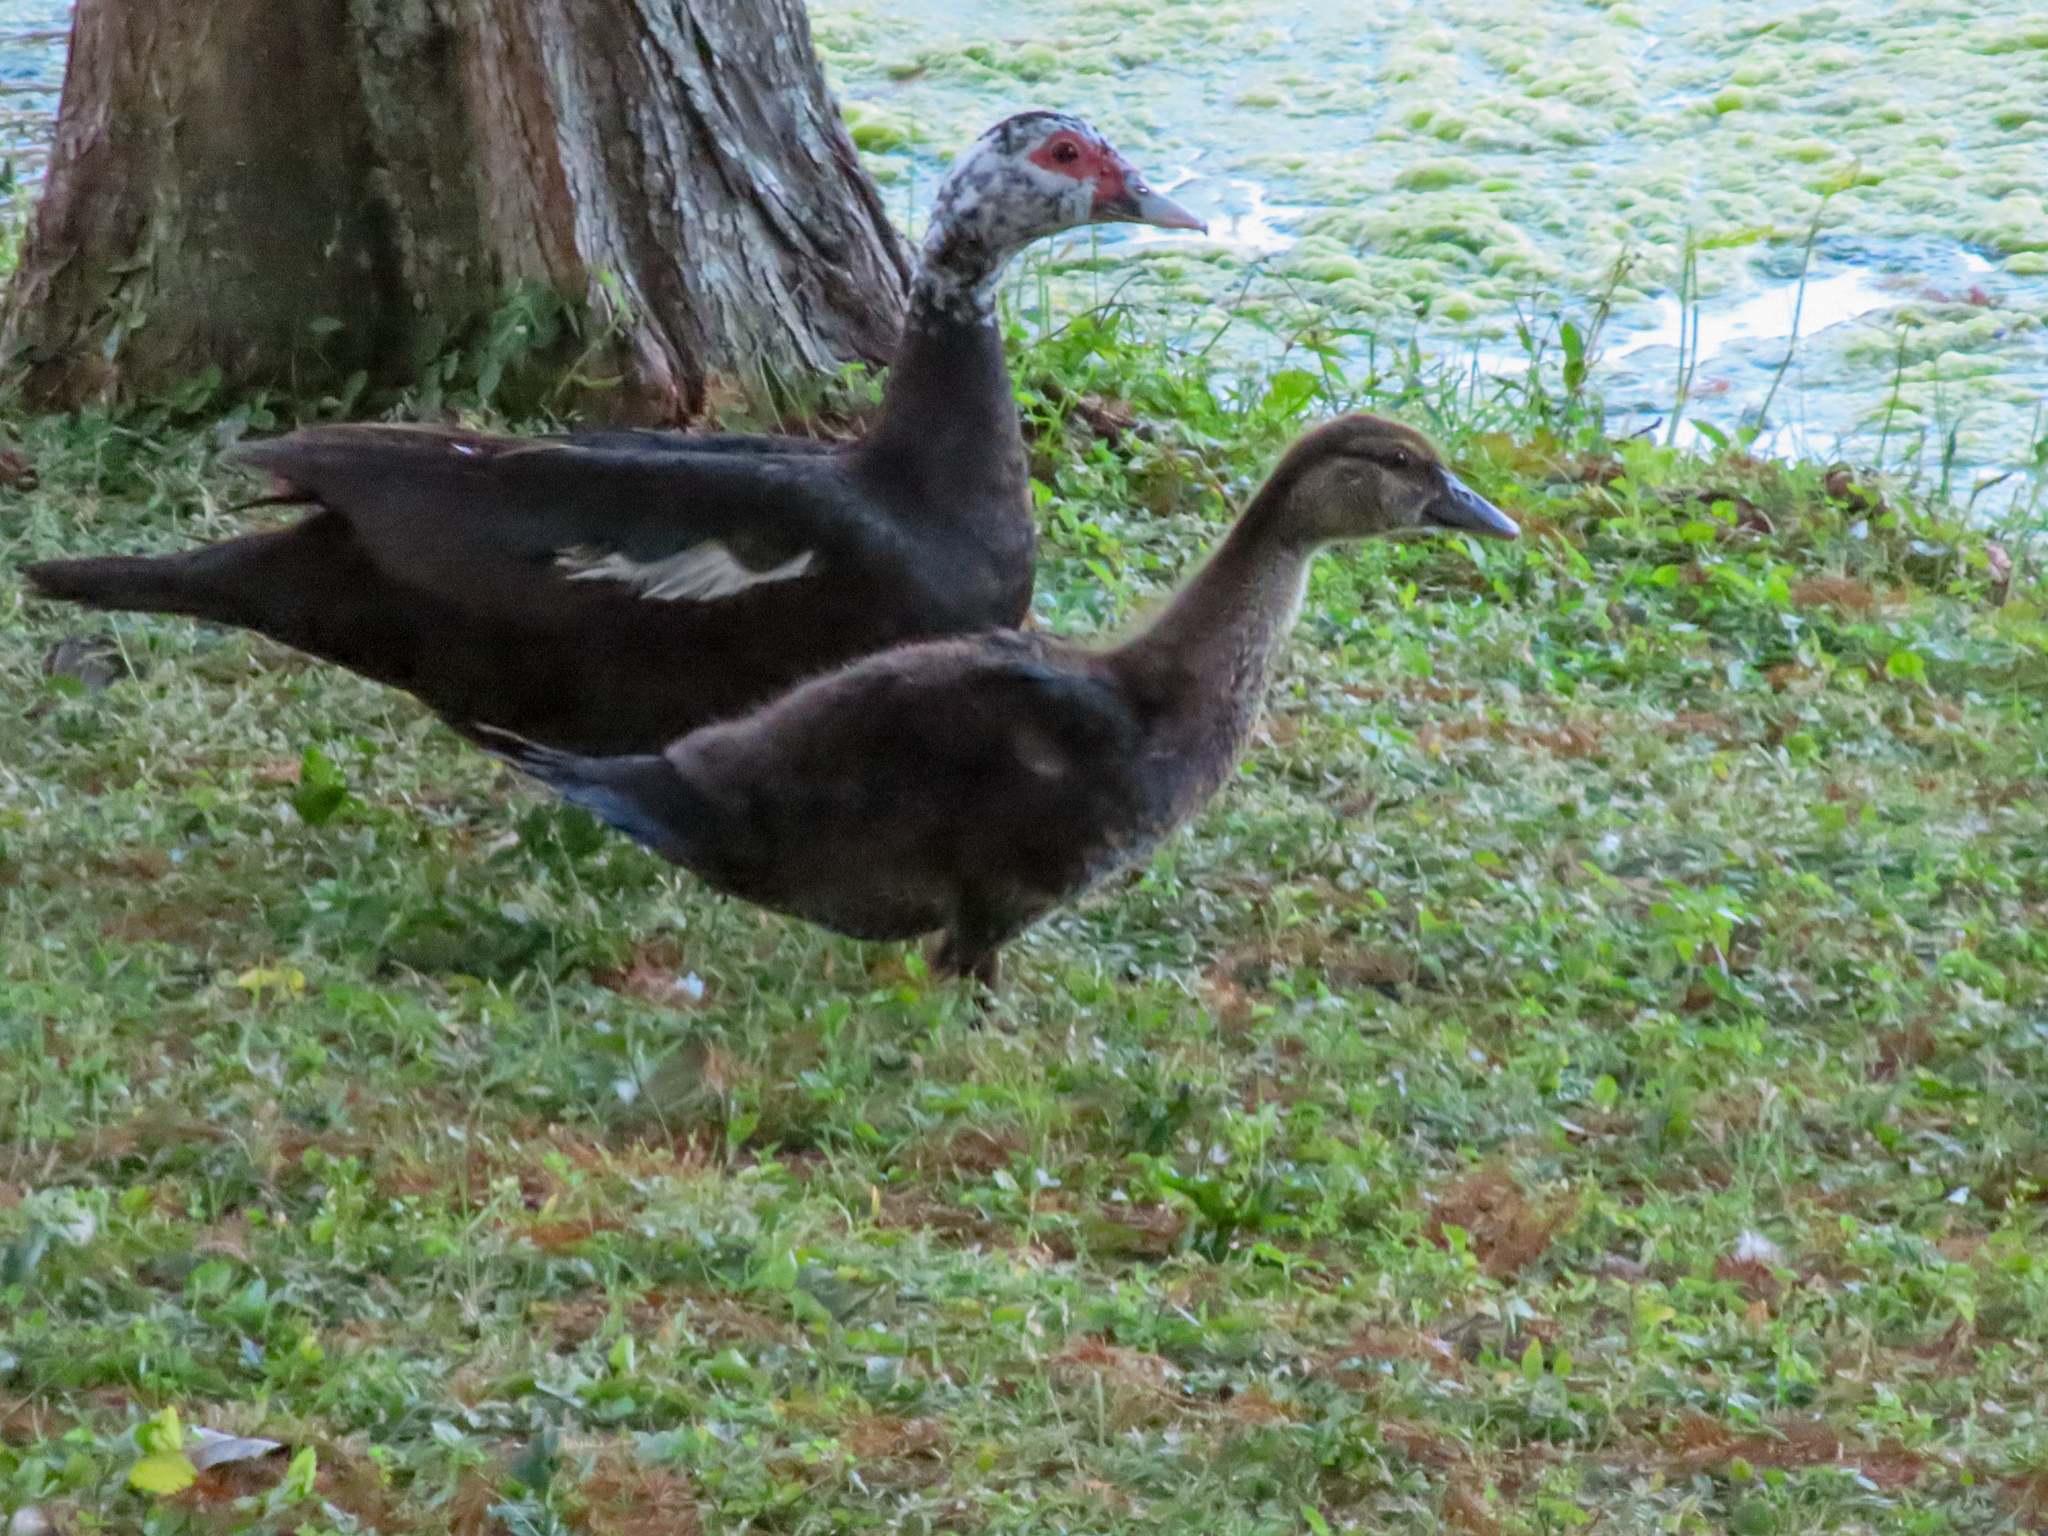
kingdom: Animalia
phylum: Chordata
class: Aves
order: Anseriformes
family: Anatidae
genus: Cairina
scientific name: Cairina moschata
